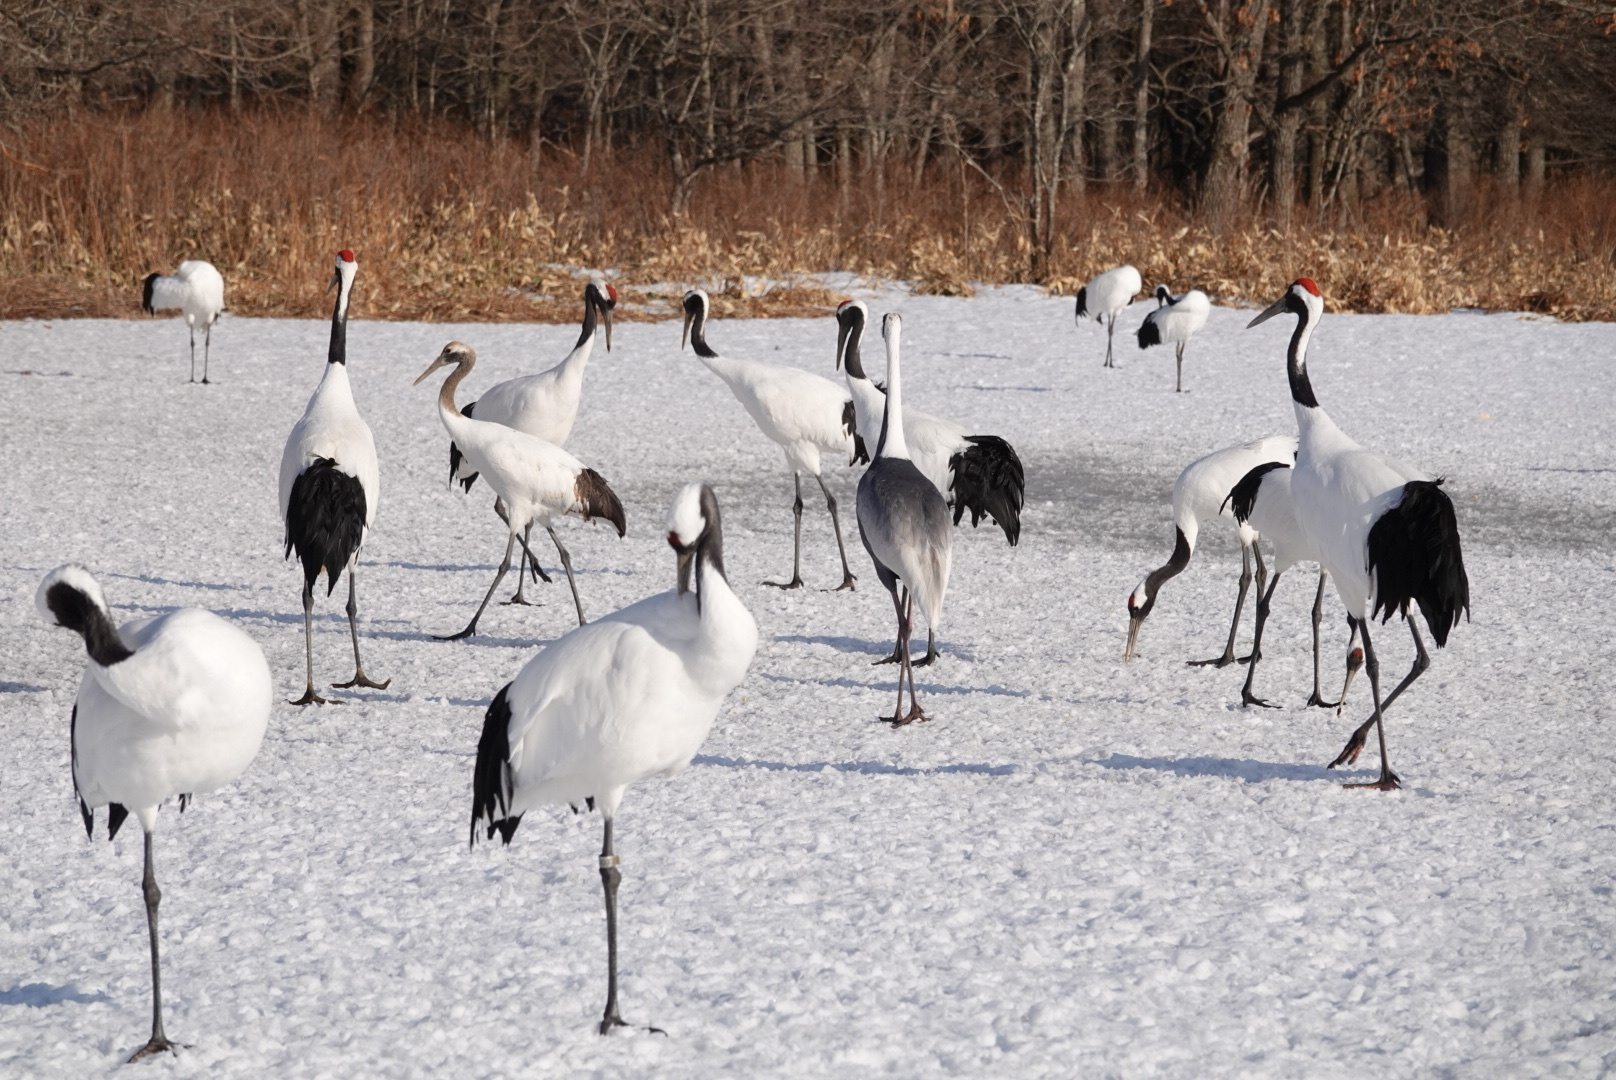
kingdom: Animalia
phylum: Chordata
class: Aves
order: Gruiformes
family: Gruidae
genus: Grus
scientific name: Grus japonensis
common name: Red-crowned crane
